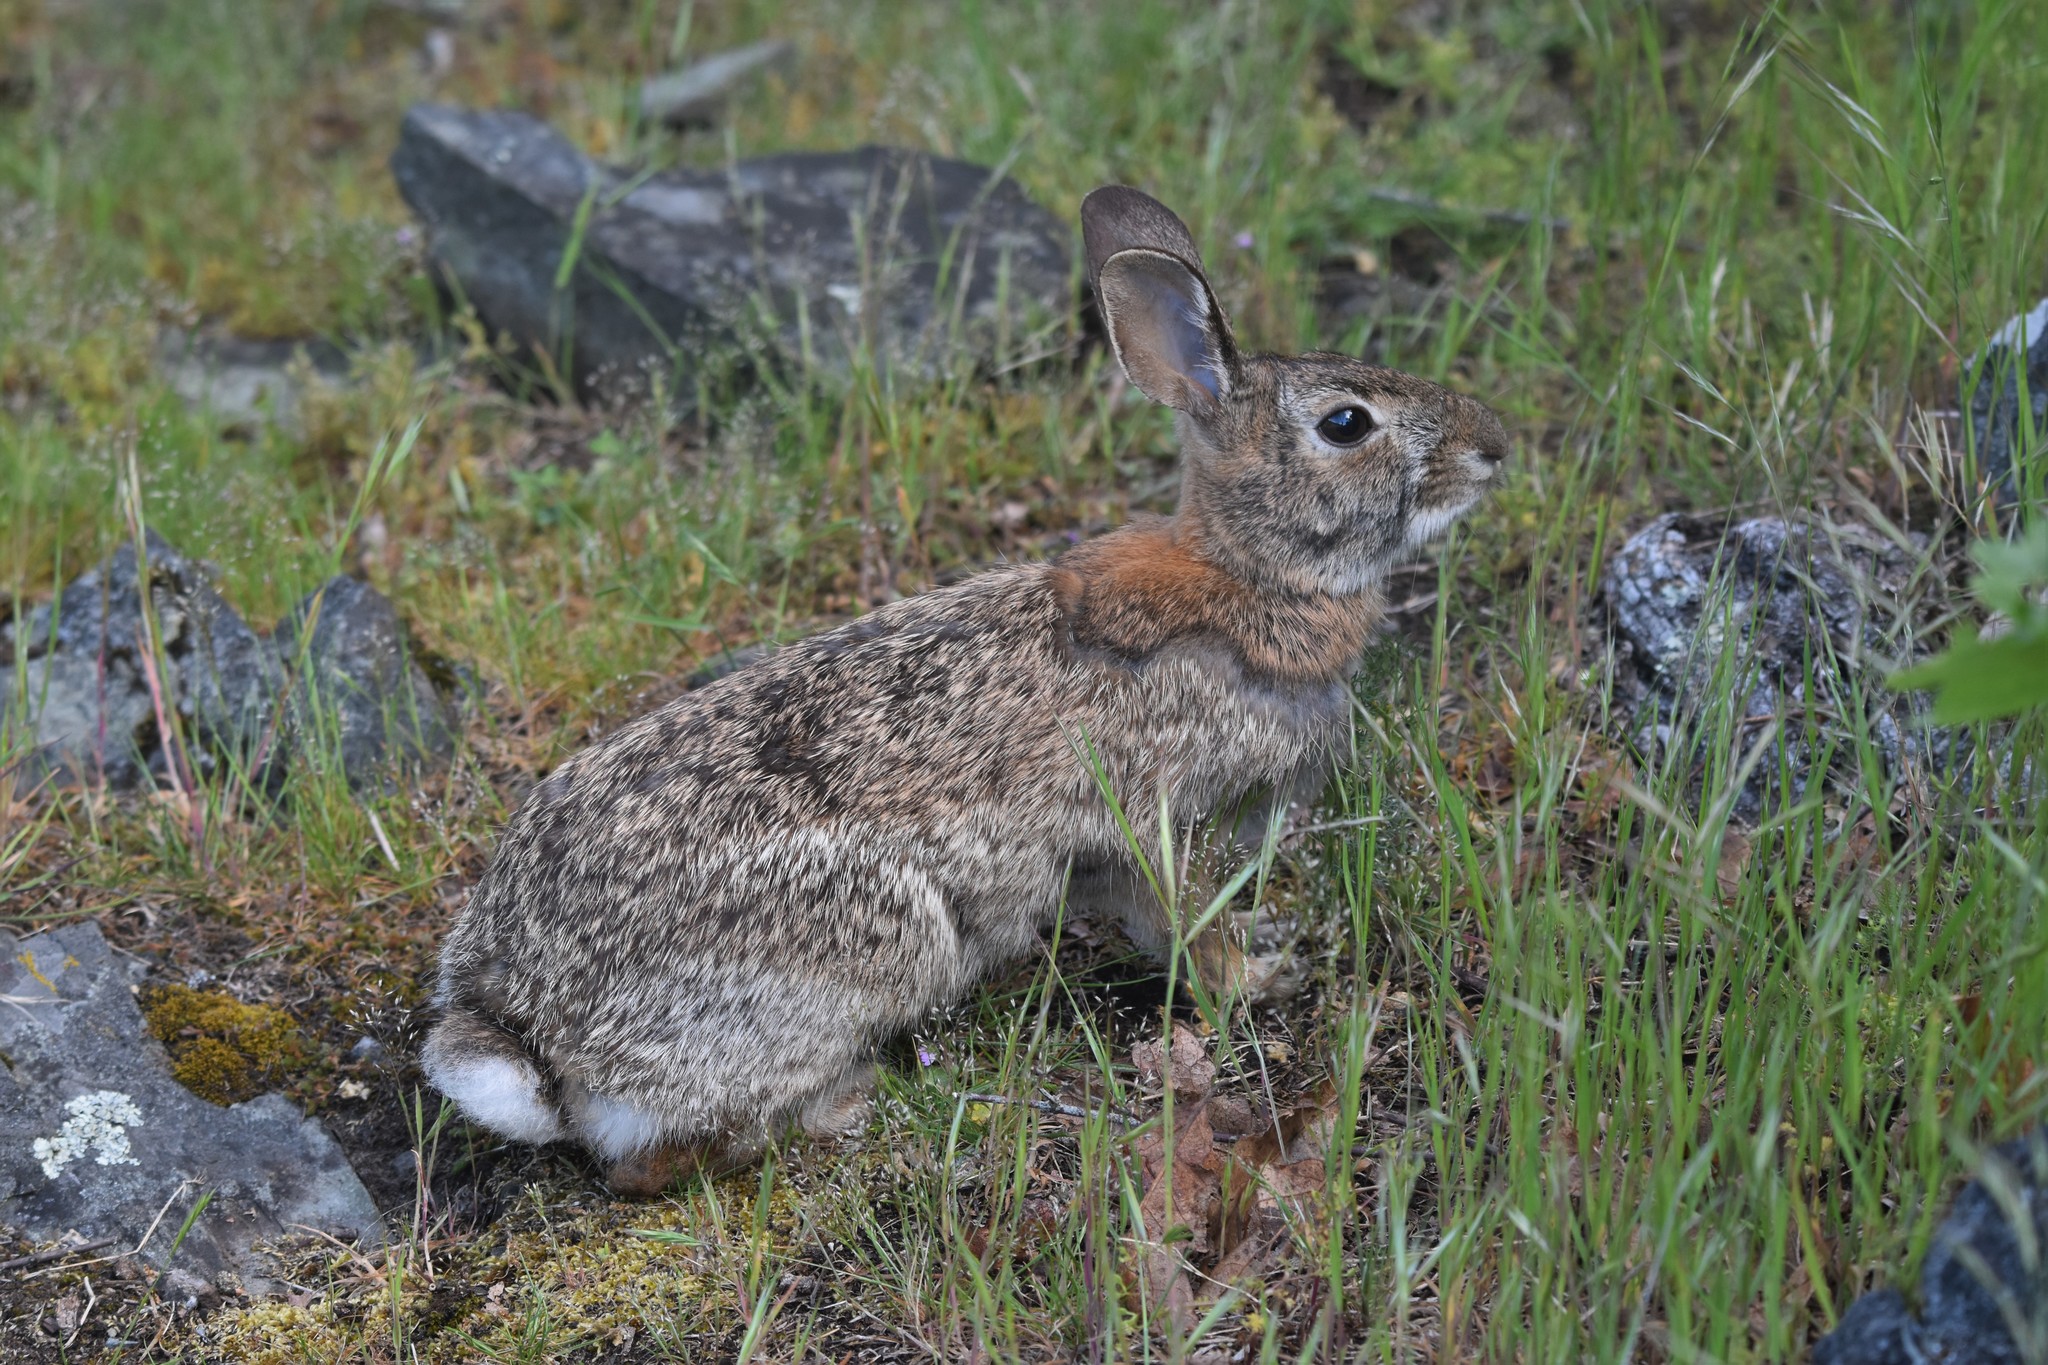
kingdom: Animalia
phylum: Chordata
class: Mammalia
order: Lagomorpha
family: Leporidae
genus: Sylvilagus
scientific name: Sylvilagus floridanus
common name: Eastern cottontail
